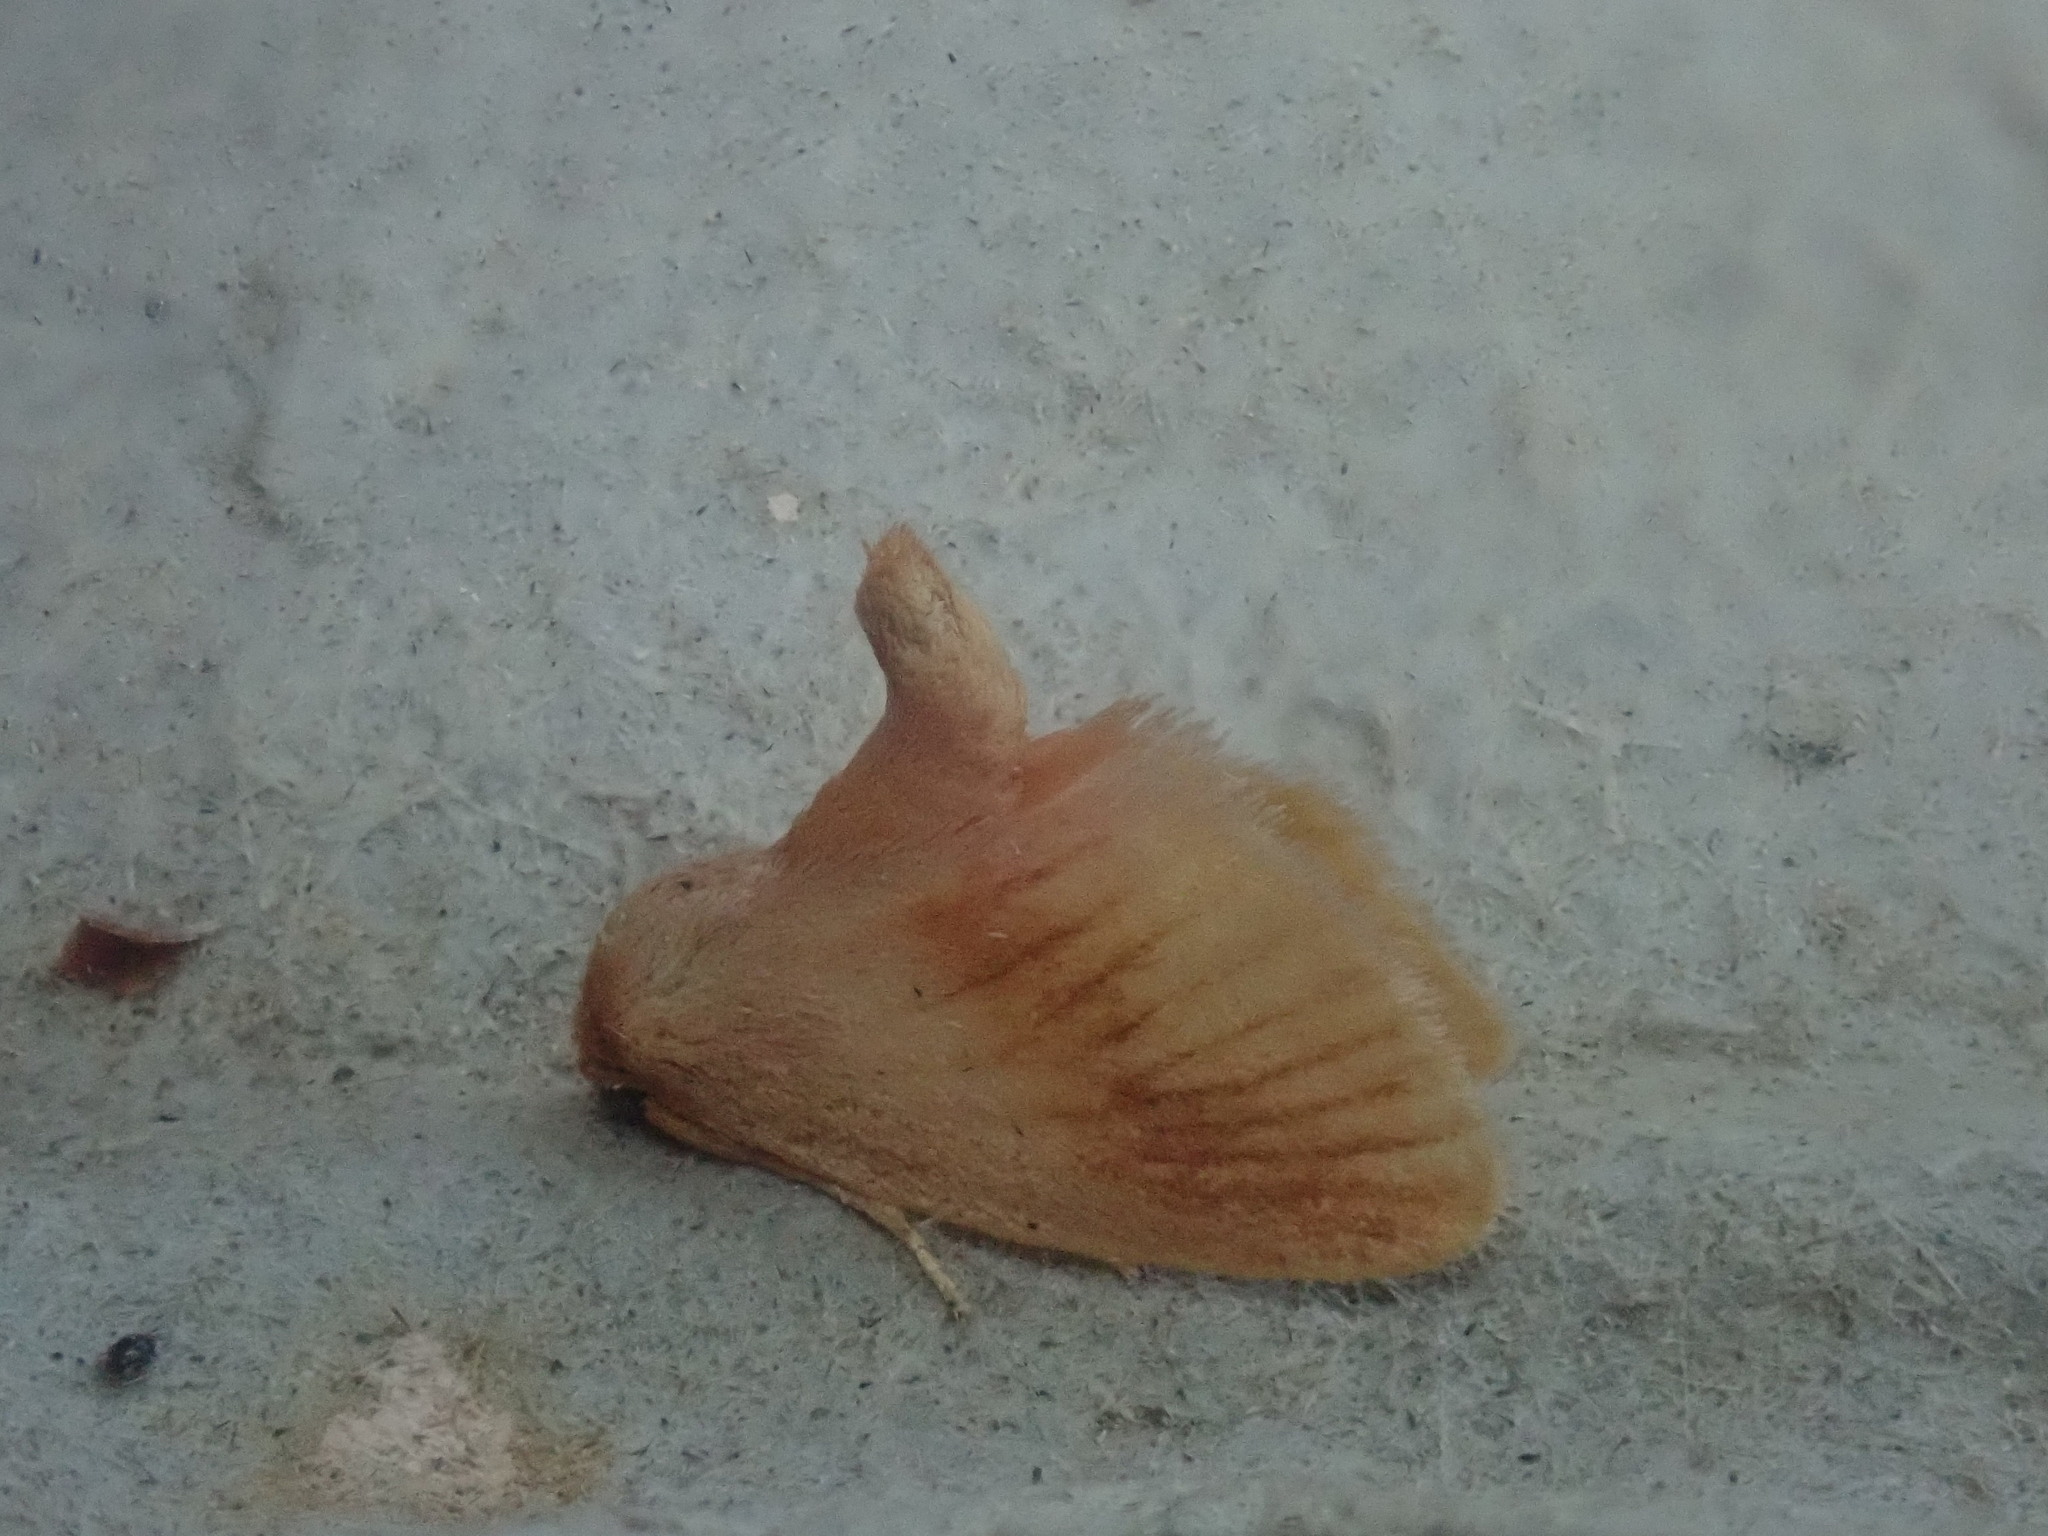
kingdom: Animalia
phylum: Arthropoda
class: Insecta
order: Lepidoptera
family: Limacodidae
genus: Tortricidia
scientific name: Tortricidia testacea
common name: Early button slug moth
